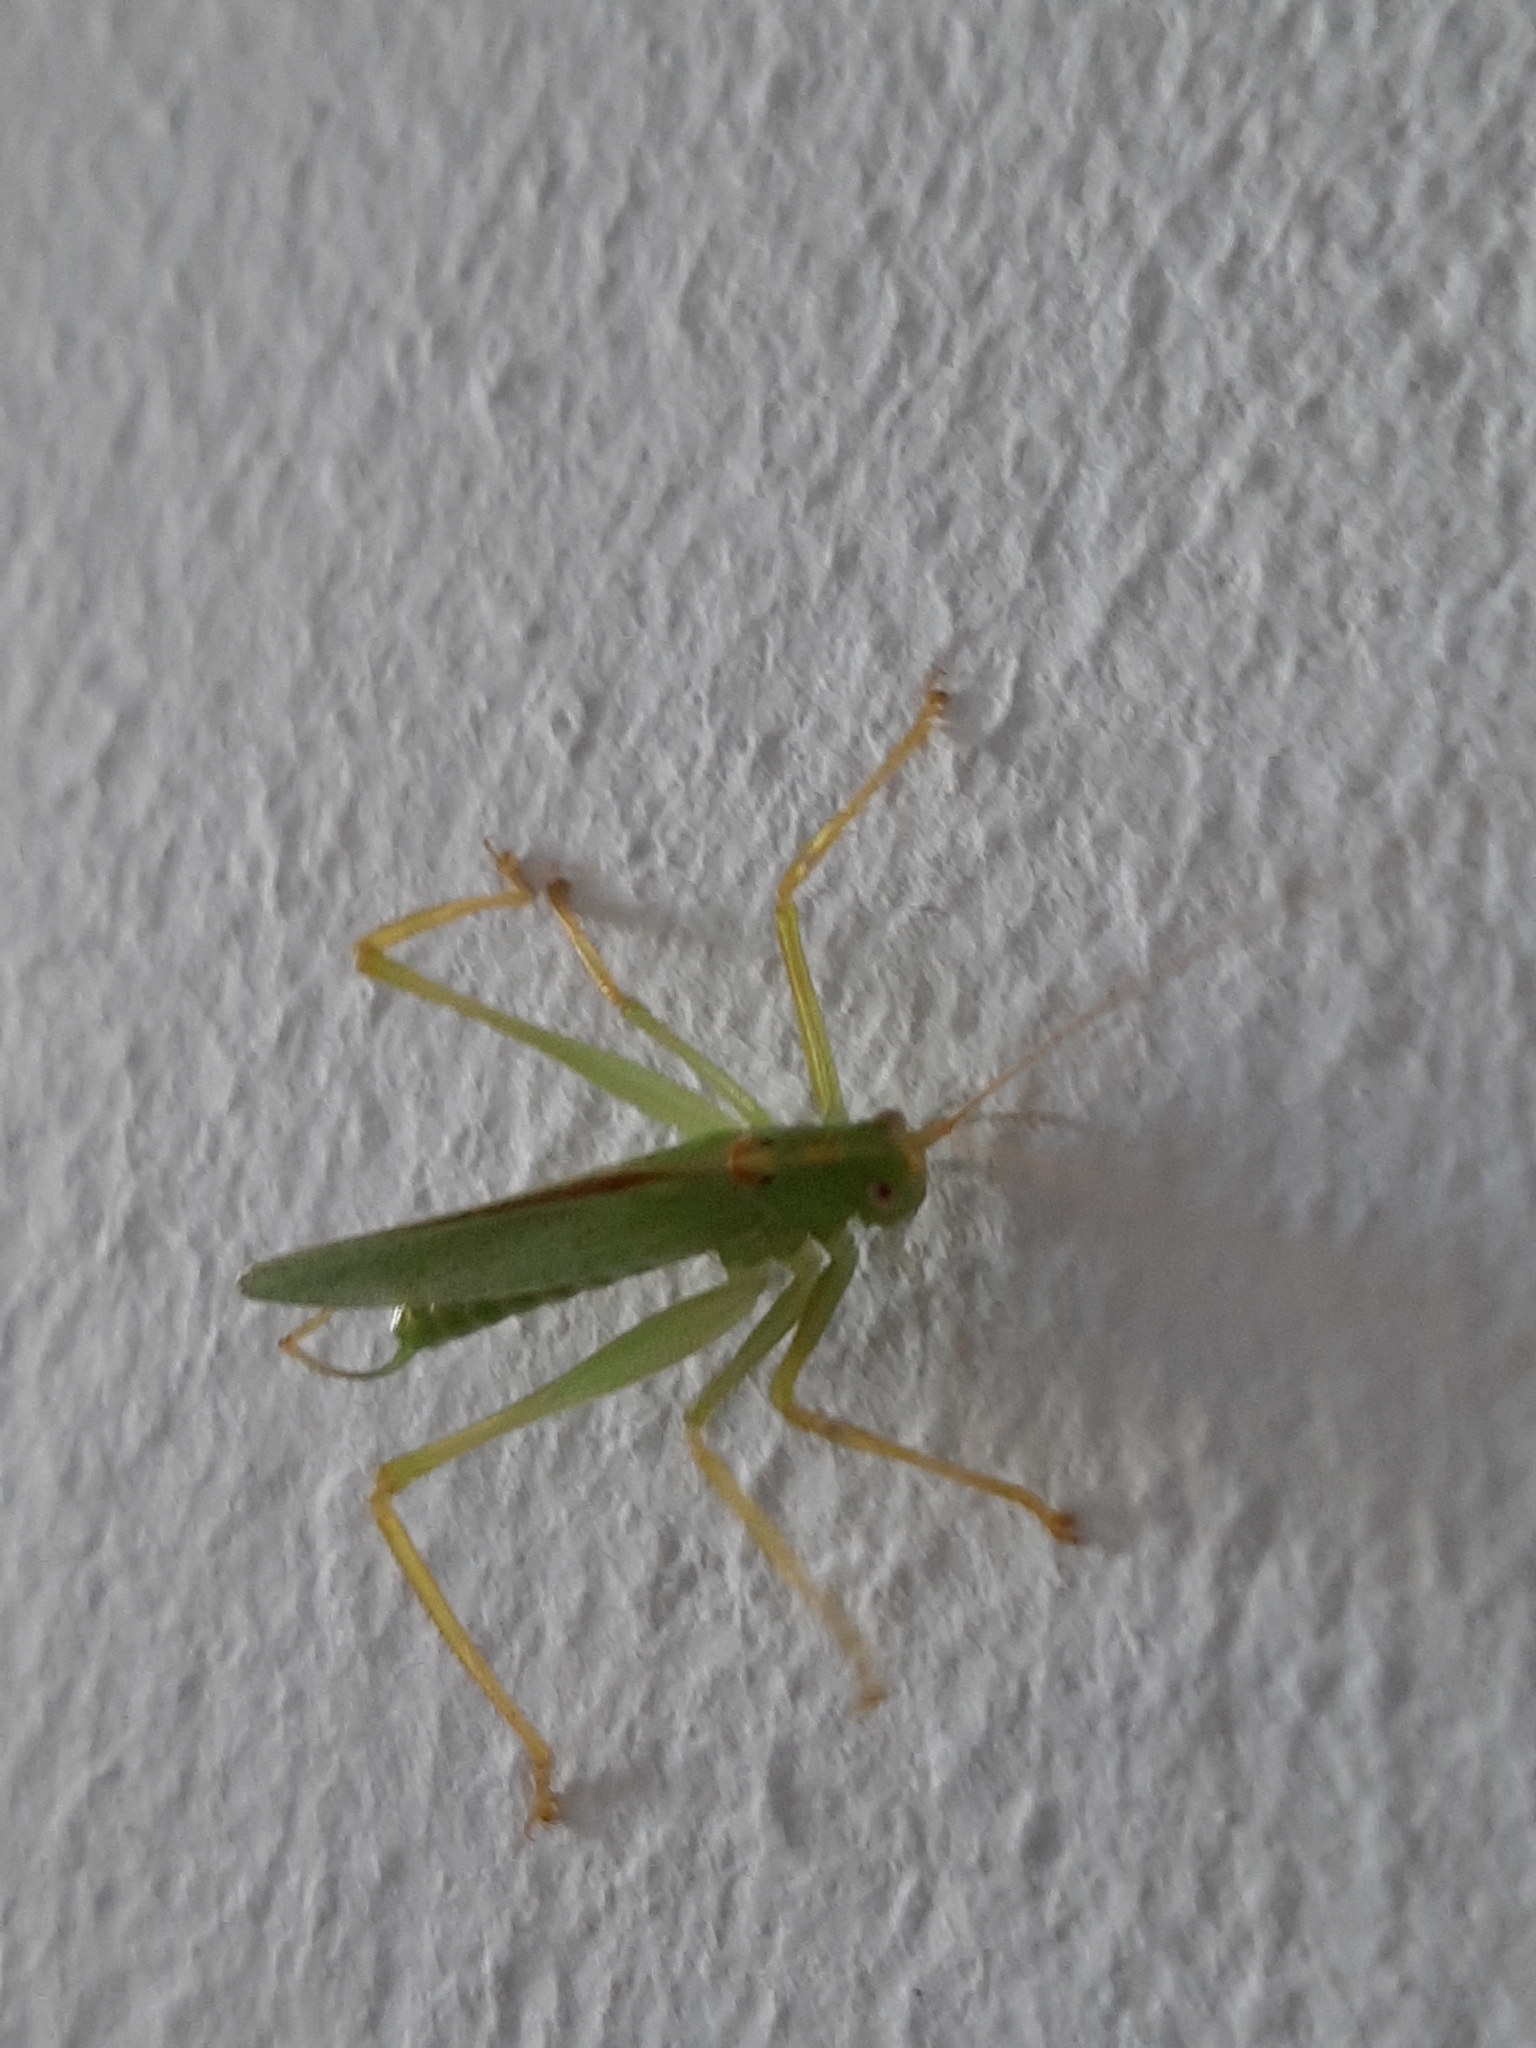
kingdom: Animalia
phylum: Arthropoda
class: Insecta
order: Orthoptera
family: Tettigoniidae
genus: Meconema
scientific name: Meconema thalassinum
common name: Oak bush-cricket
